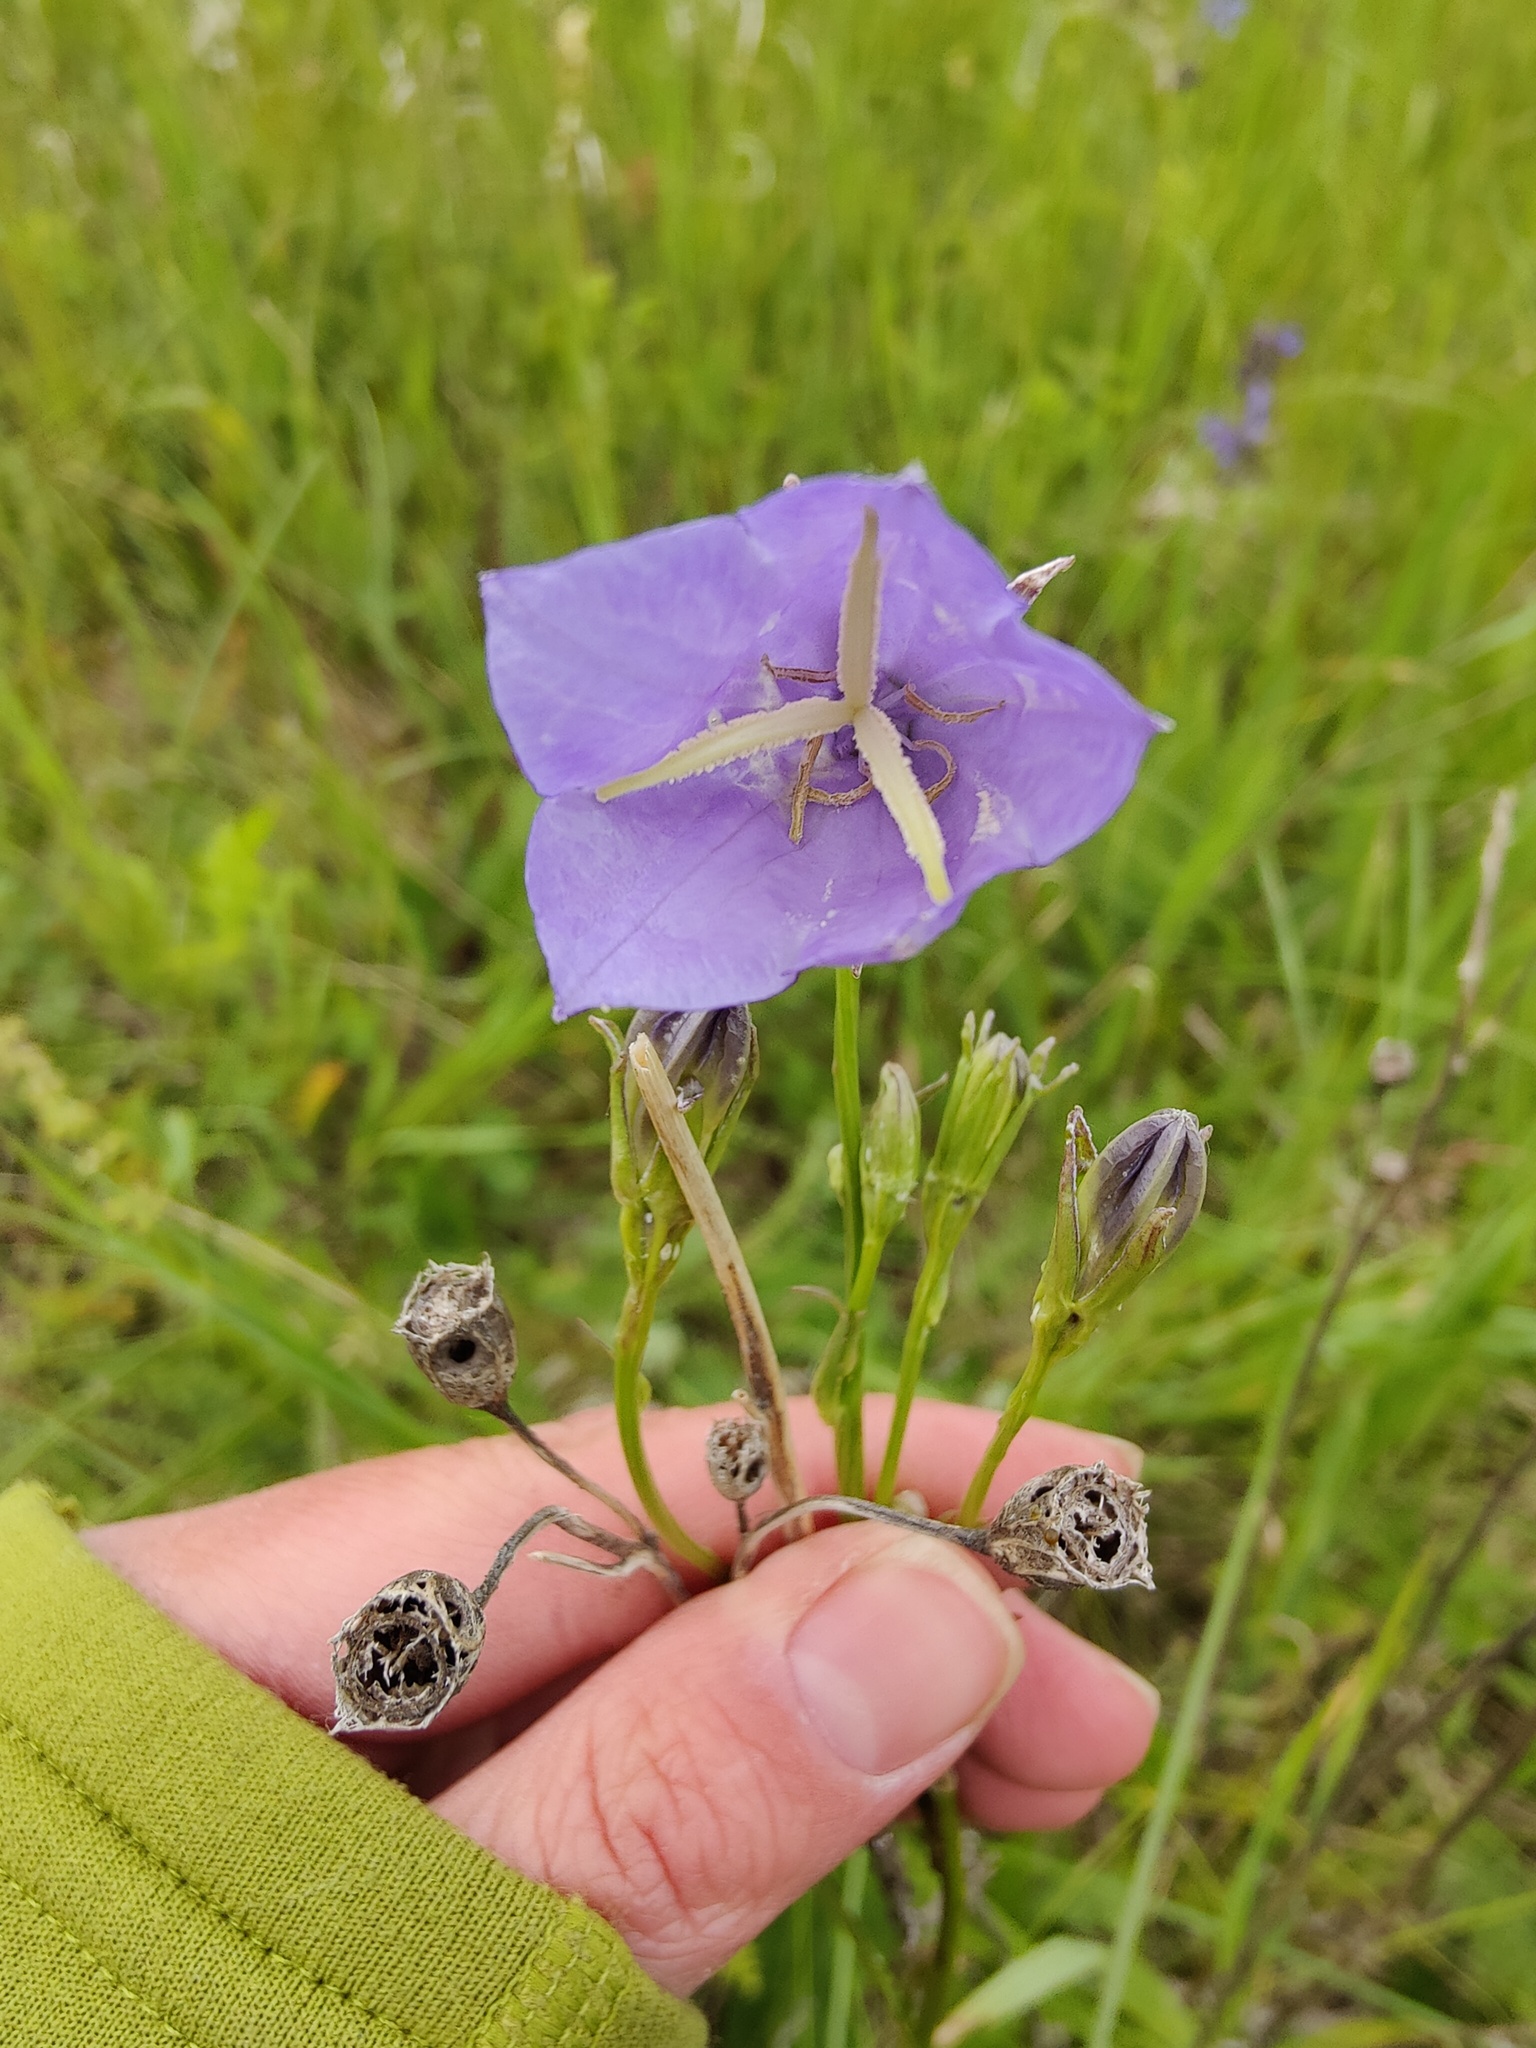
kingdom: Plantae
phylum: Tracheophyta
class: Magnoliopsida
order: Asterales
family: Campanulaceae
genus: Campanula
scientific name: Campanula persicifolia
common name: Peach-leaved bellflower
